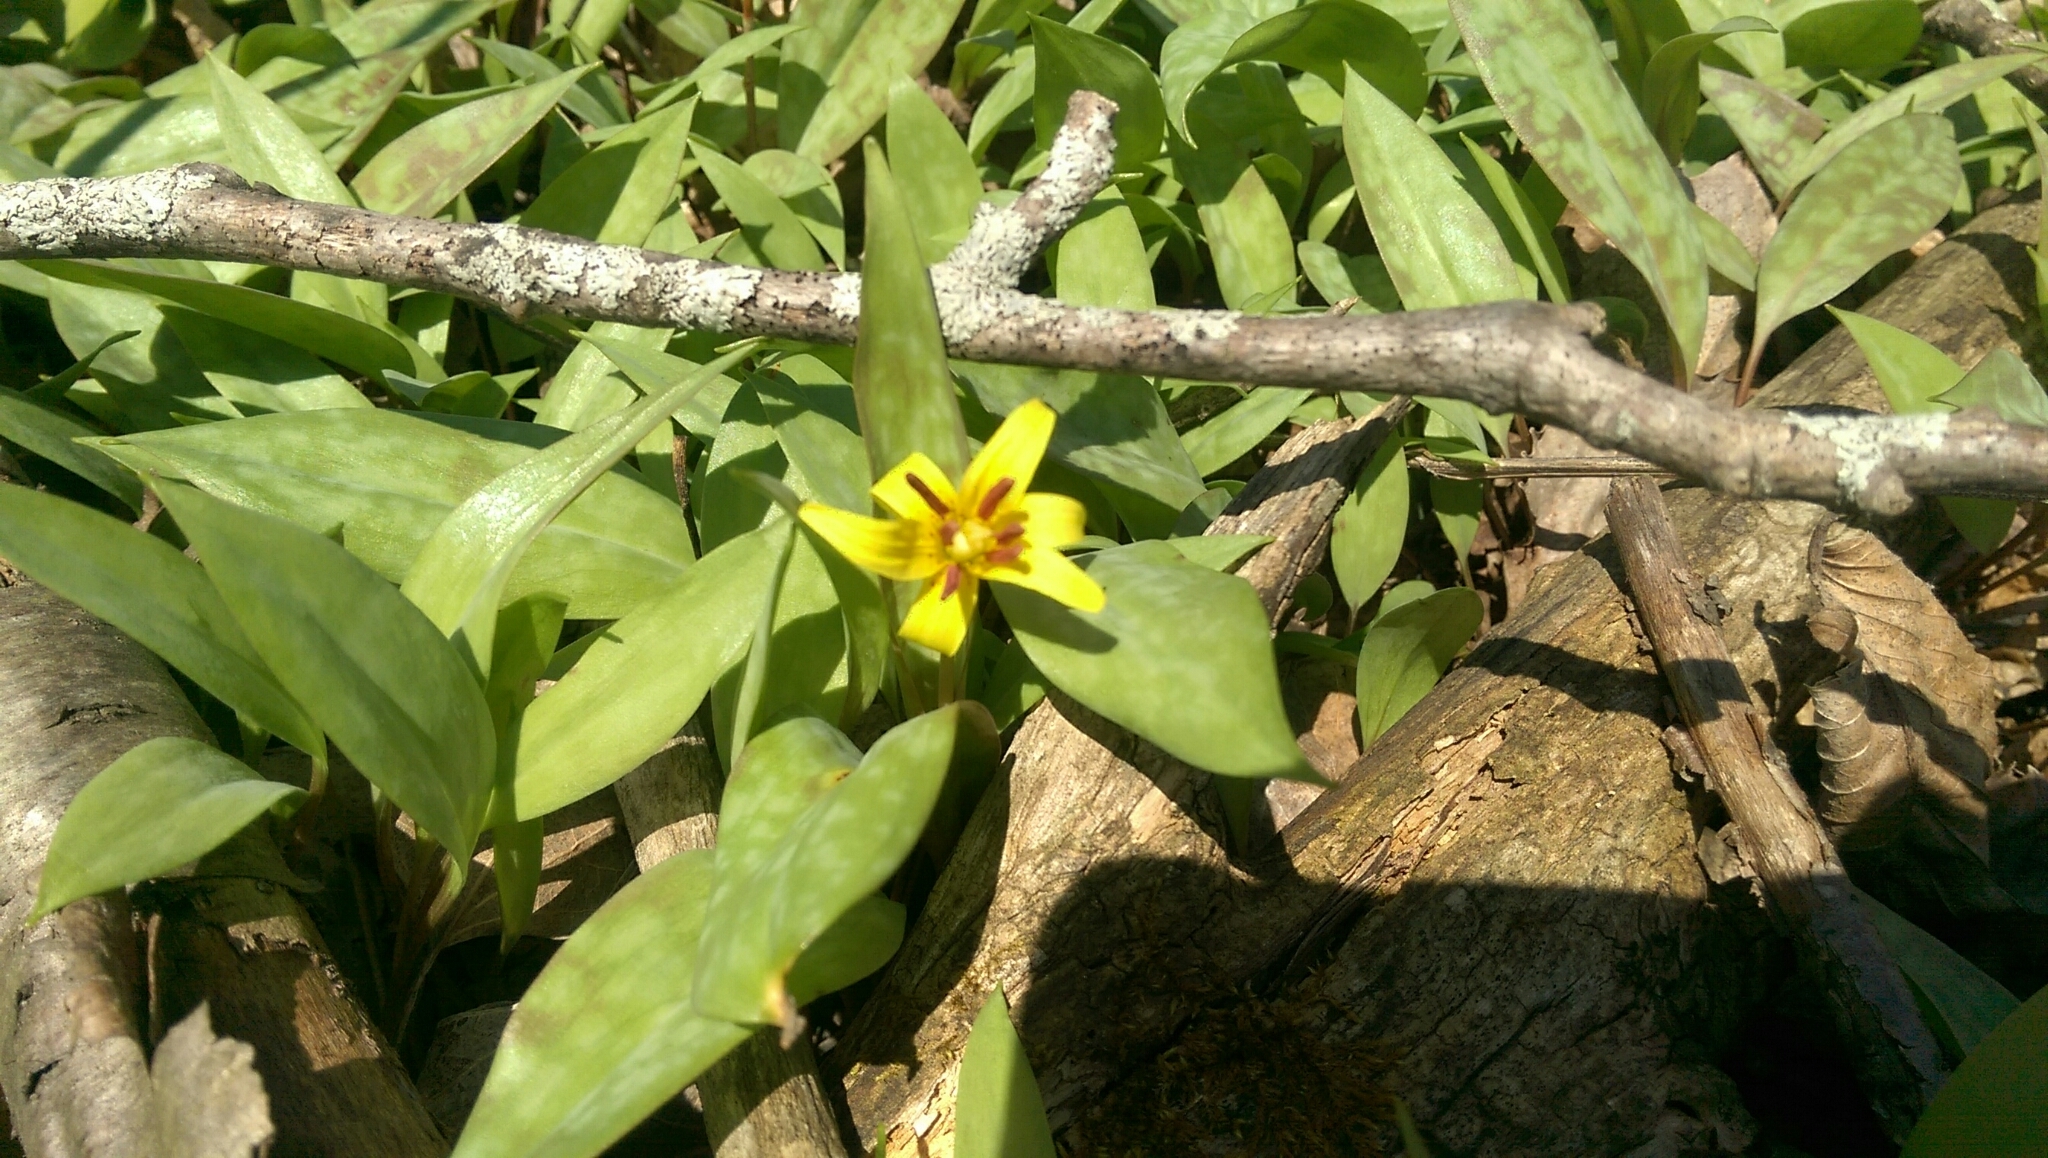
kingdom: Plantae
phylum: Tracheophyta
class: Liliopsida
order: Liliales
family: Liliaceae
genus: Erythronium
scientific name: Erythronium americanum
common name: Yellow adder's-tongue
